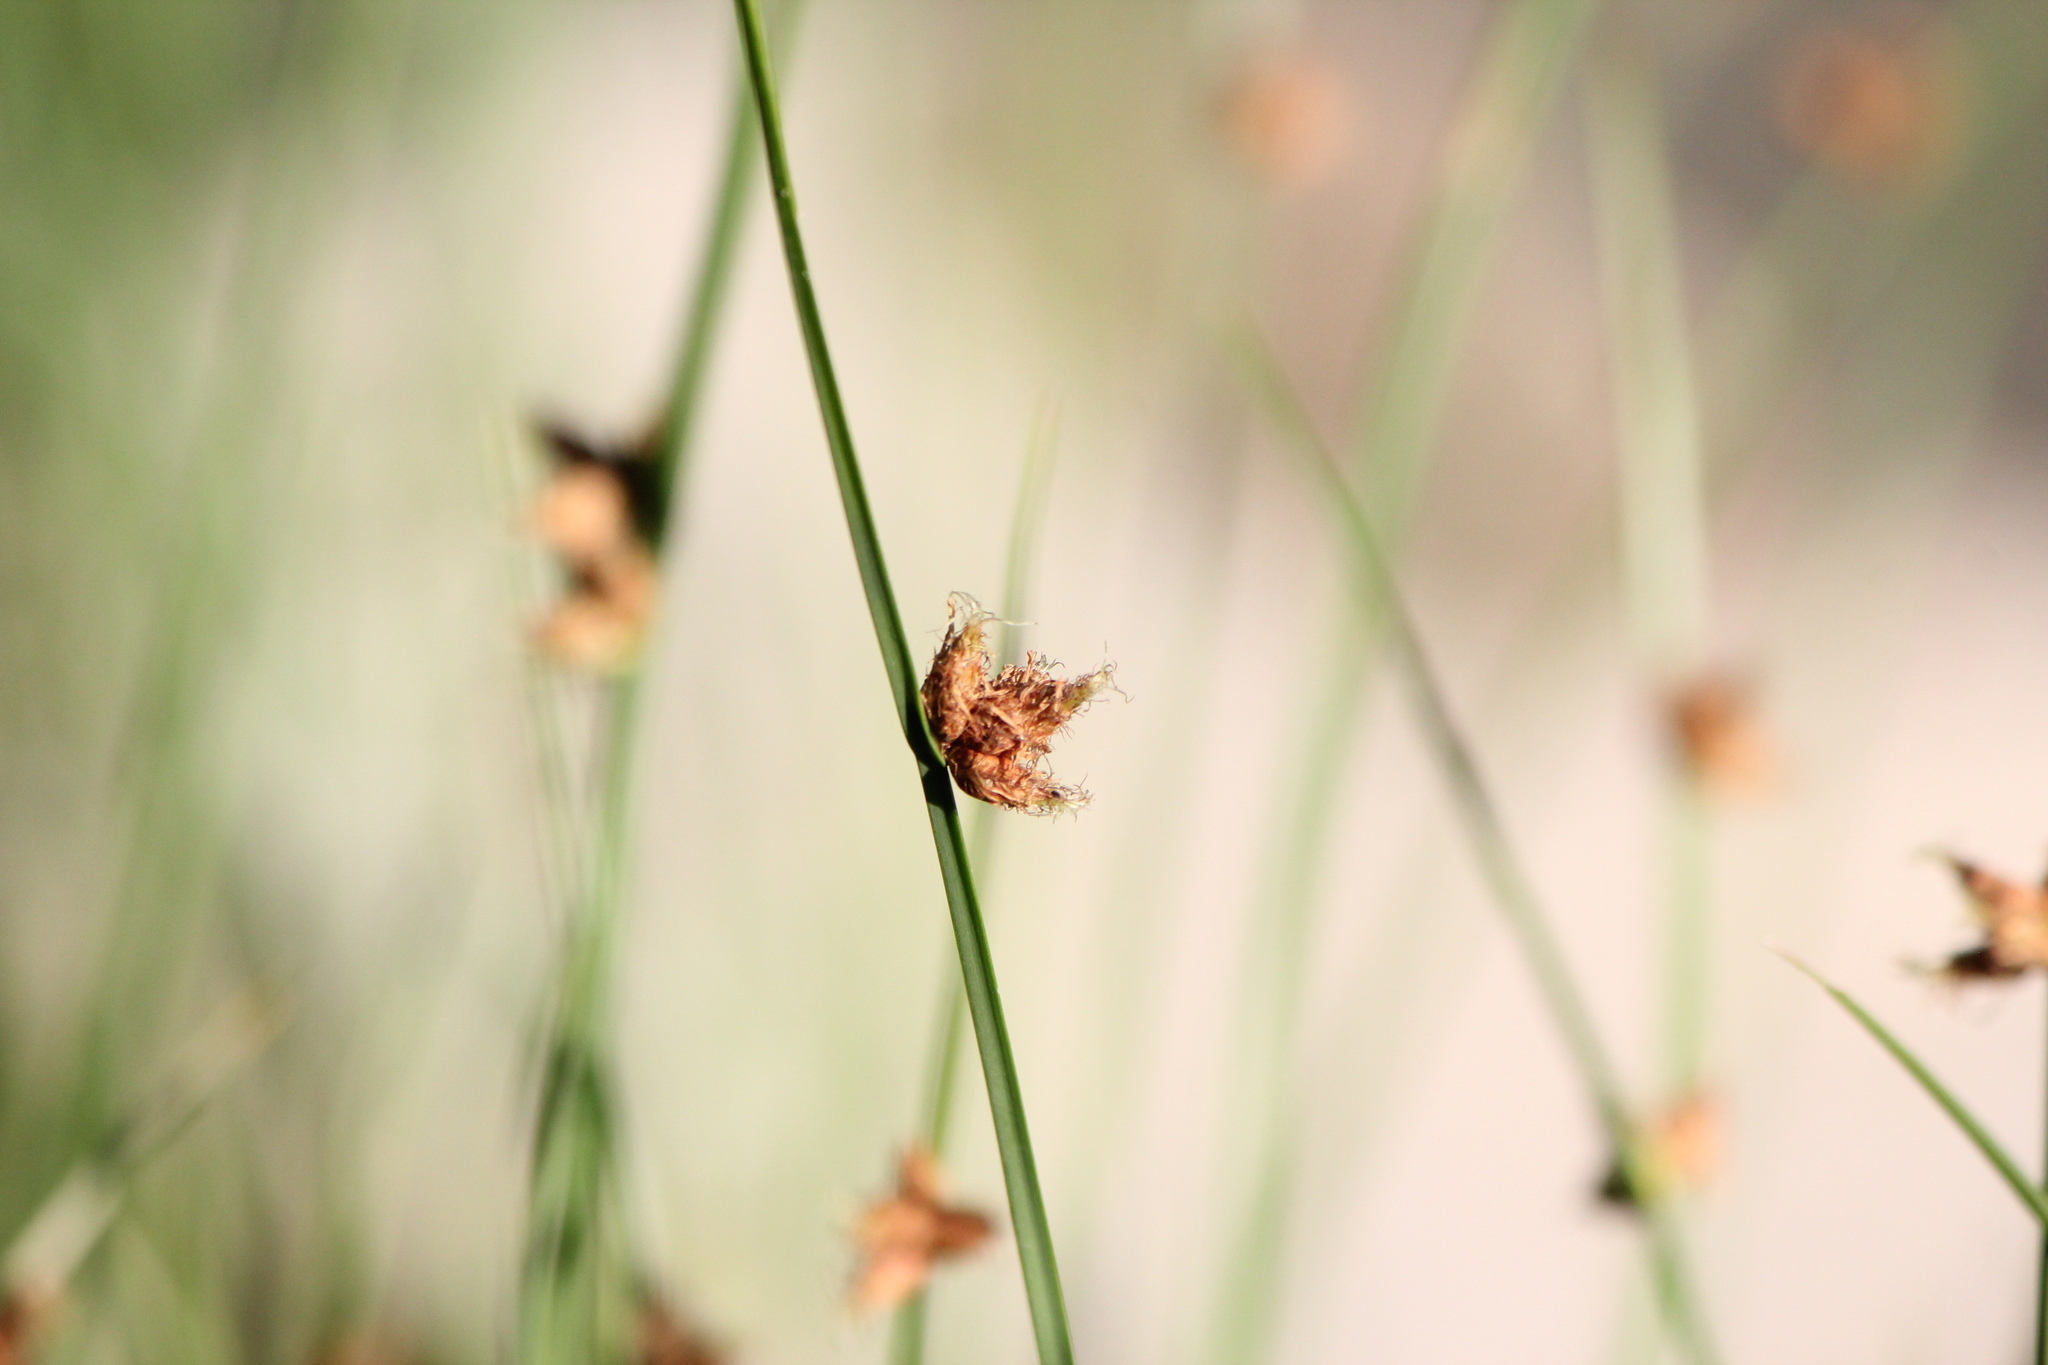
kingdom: Plantae
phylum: Tracheophyta
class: Liliopsida
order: Poales
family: Cyperaceae
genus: Schoenoplectus
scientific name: Schoenoplectus pungens
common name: Sharp club-rush
